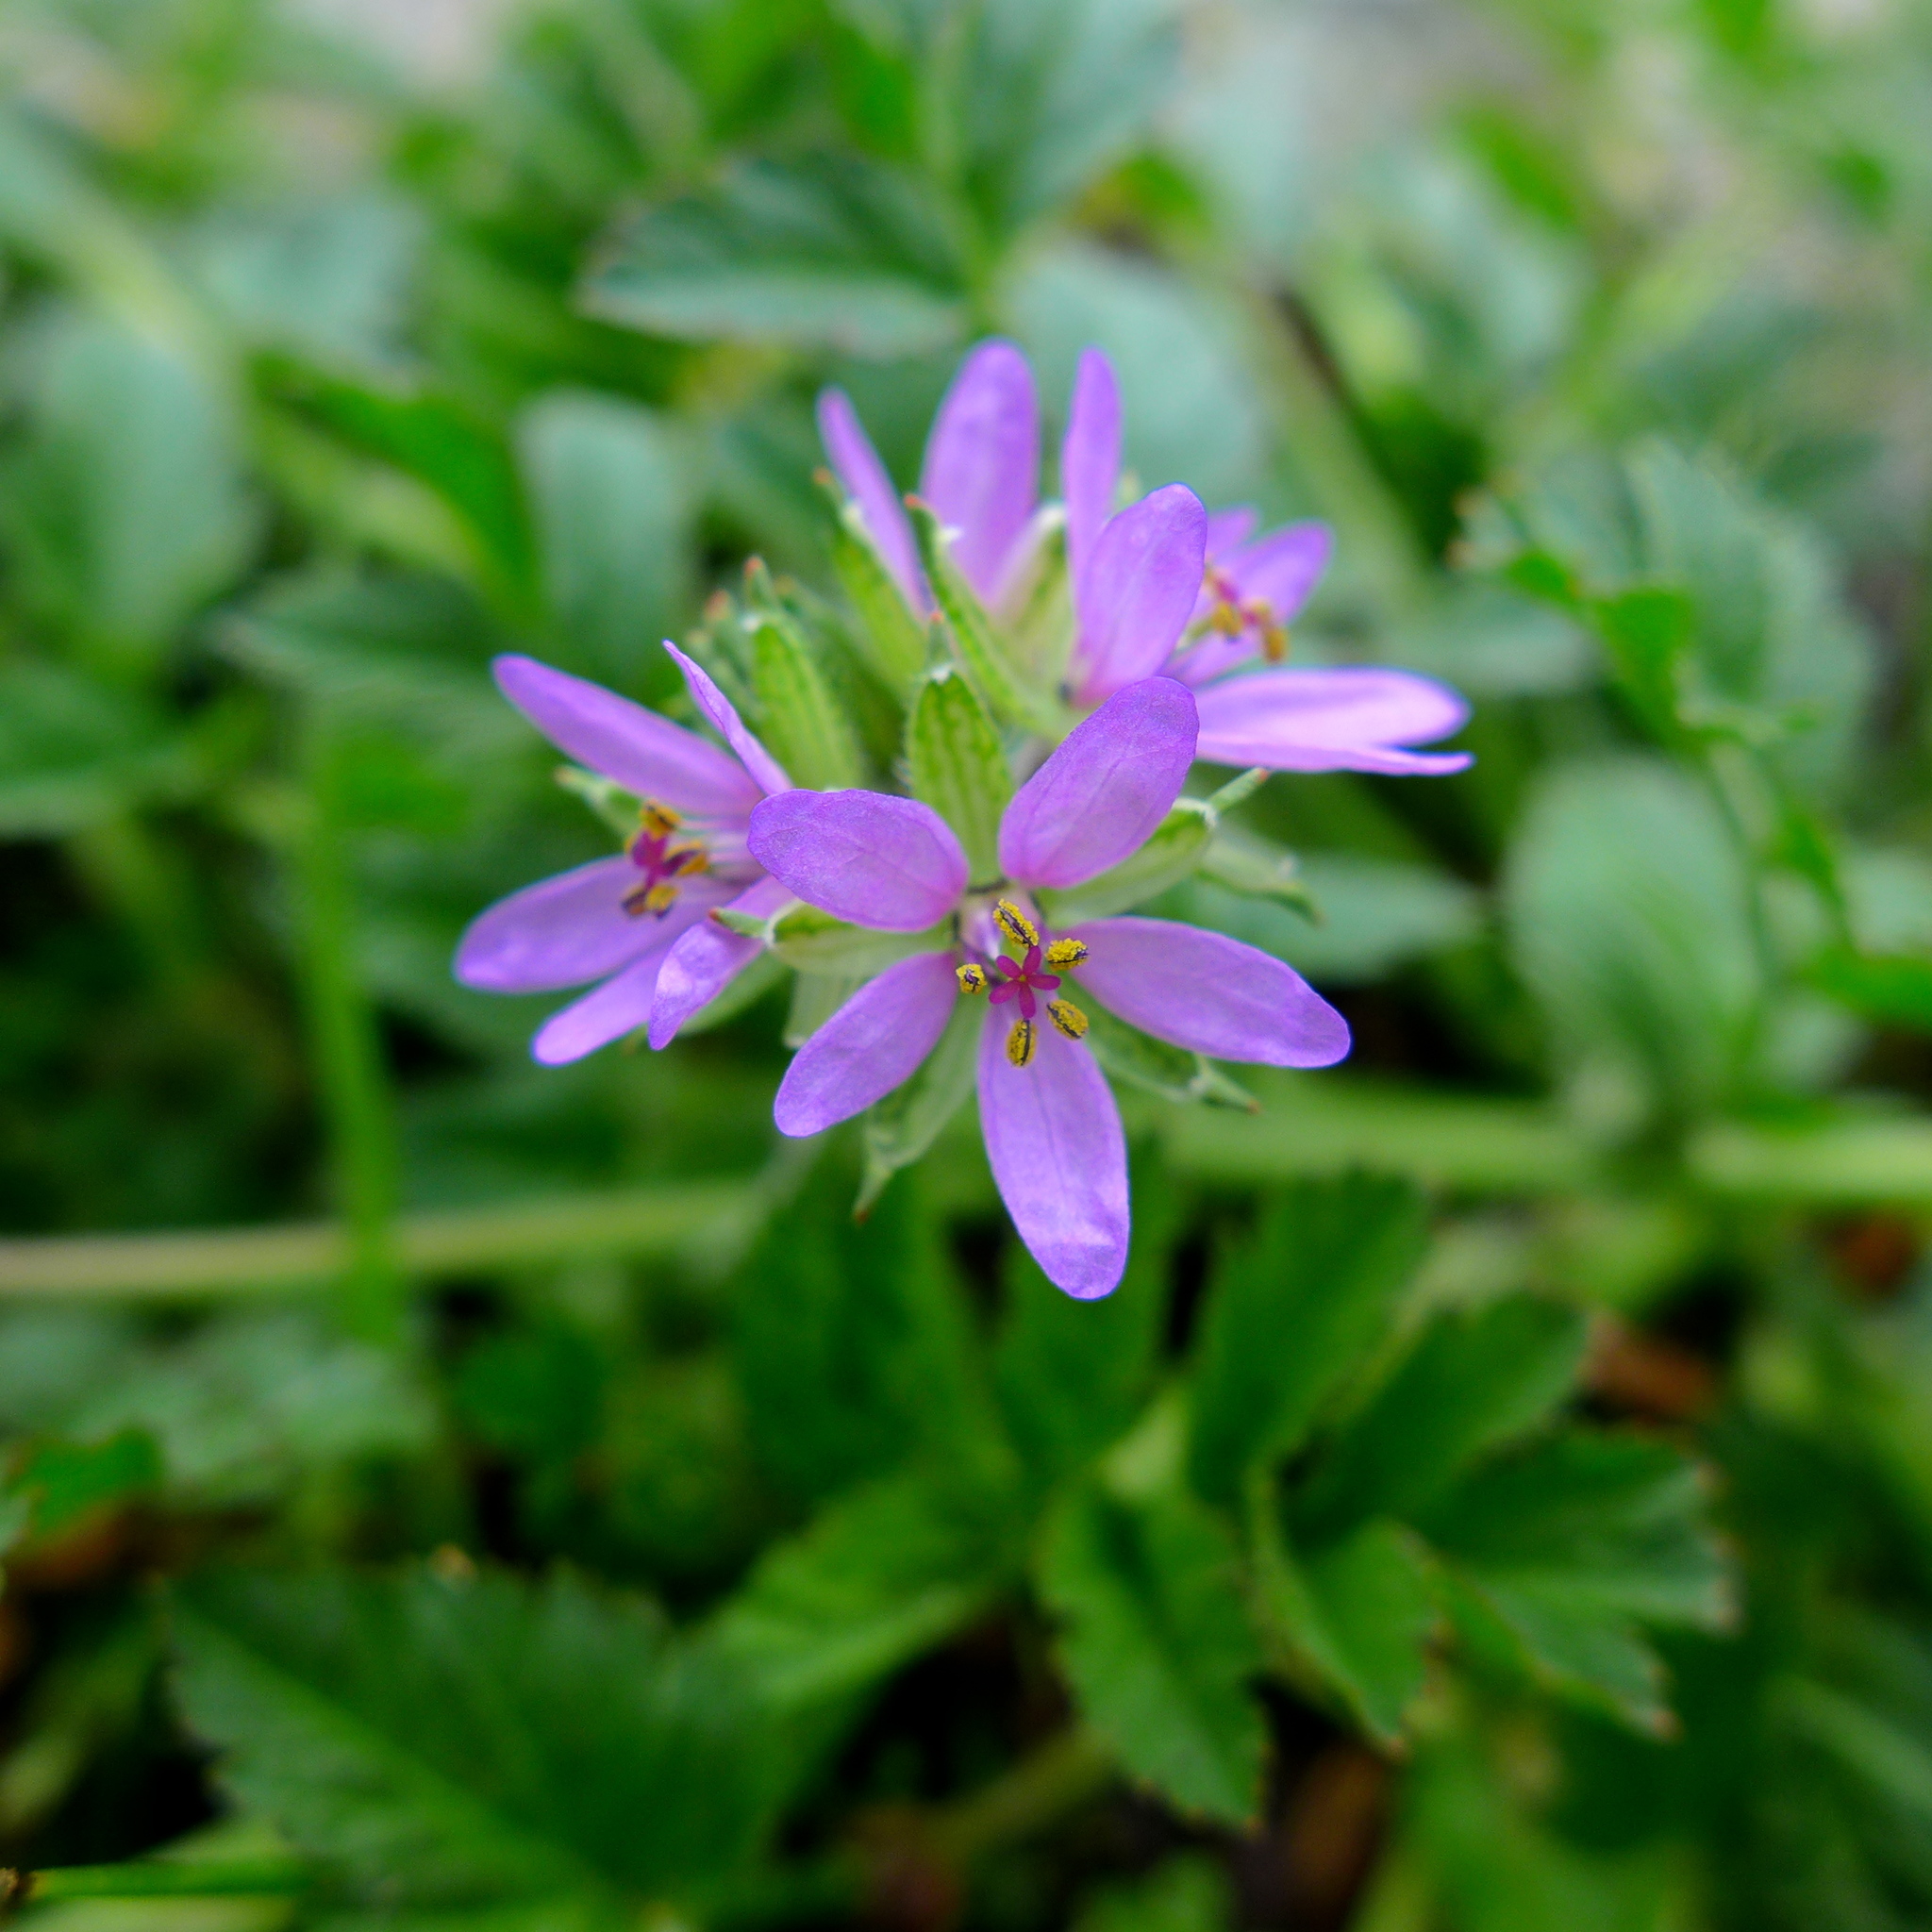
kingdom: Plantae
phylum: Tracheophyta
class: Magnoliopsida
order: Geraniales
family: Geraniaceae
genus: Erodium
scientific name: Erodium moschatum
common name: Musk stork's-bill
